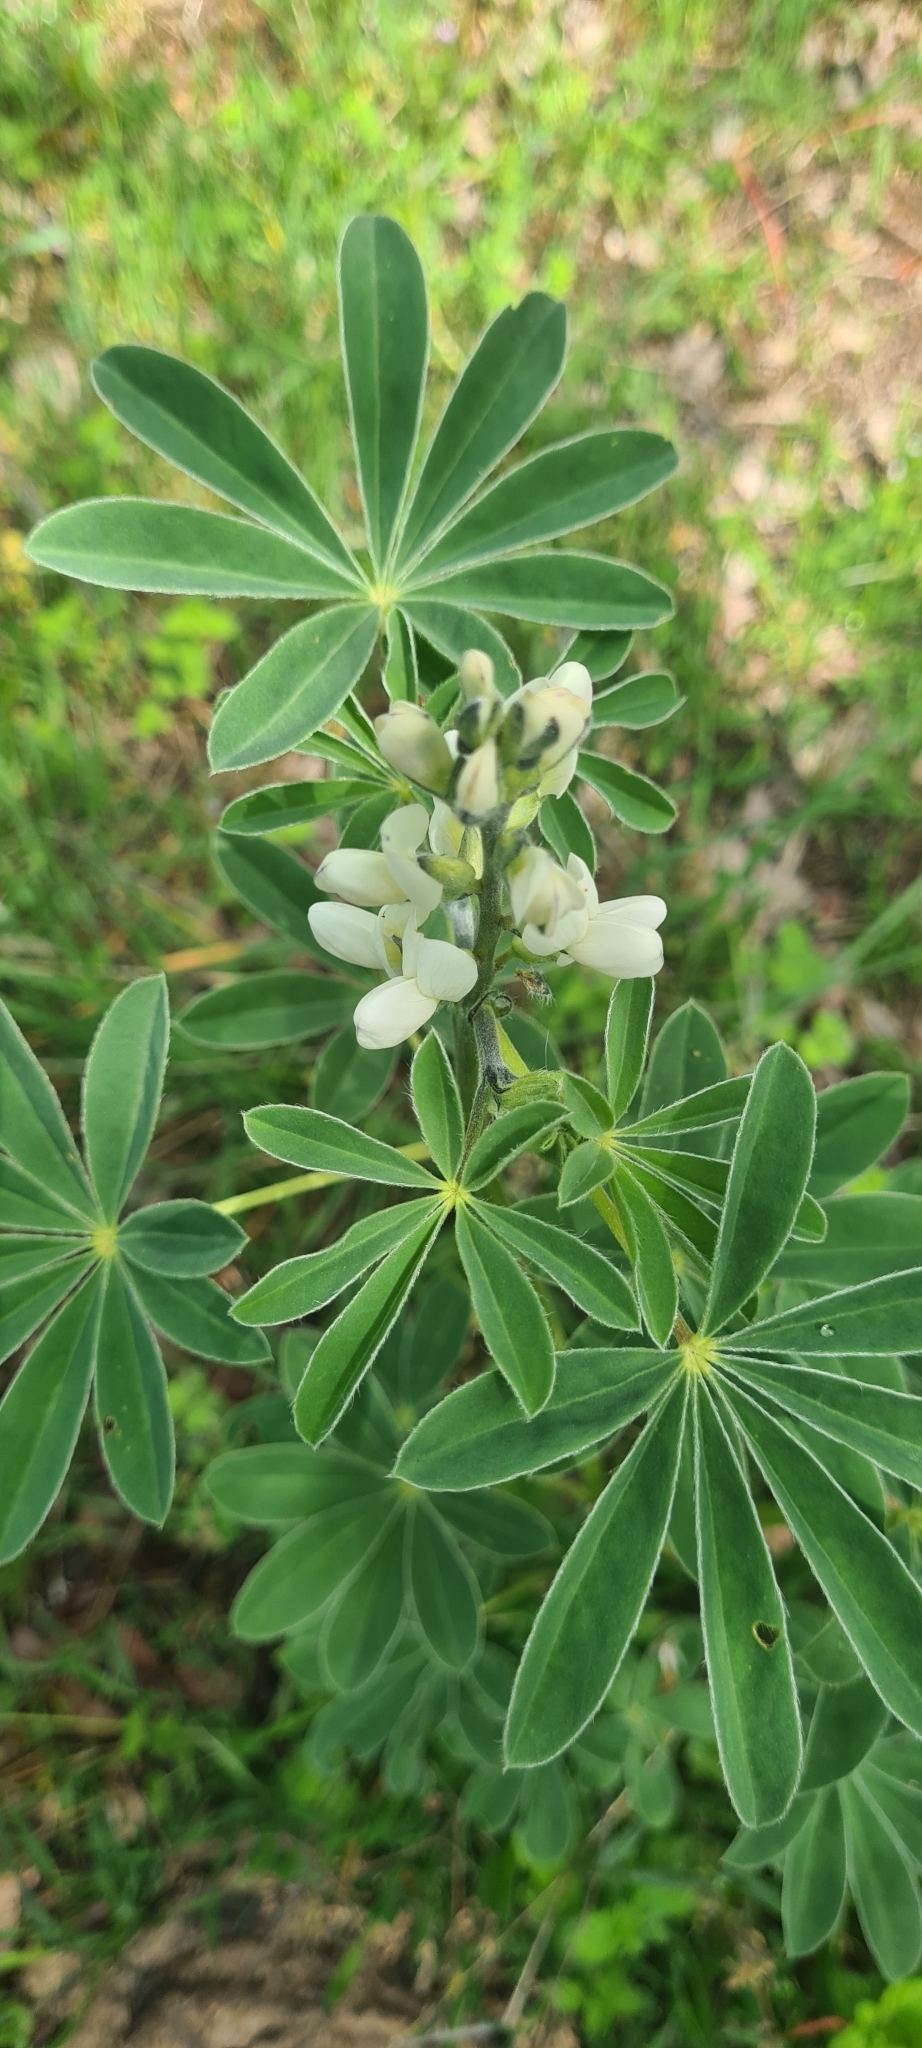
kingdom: Plantae
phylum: Tracheophyta
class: Magnoliopsida
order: Fabales
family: Fabaceae
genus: Lupinus
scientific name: Lupinus albus
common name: White lupin
